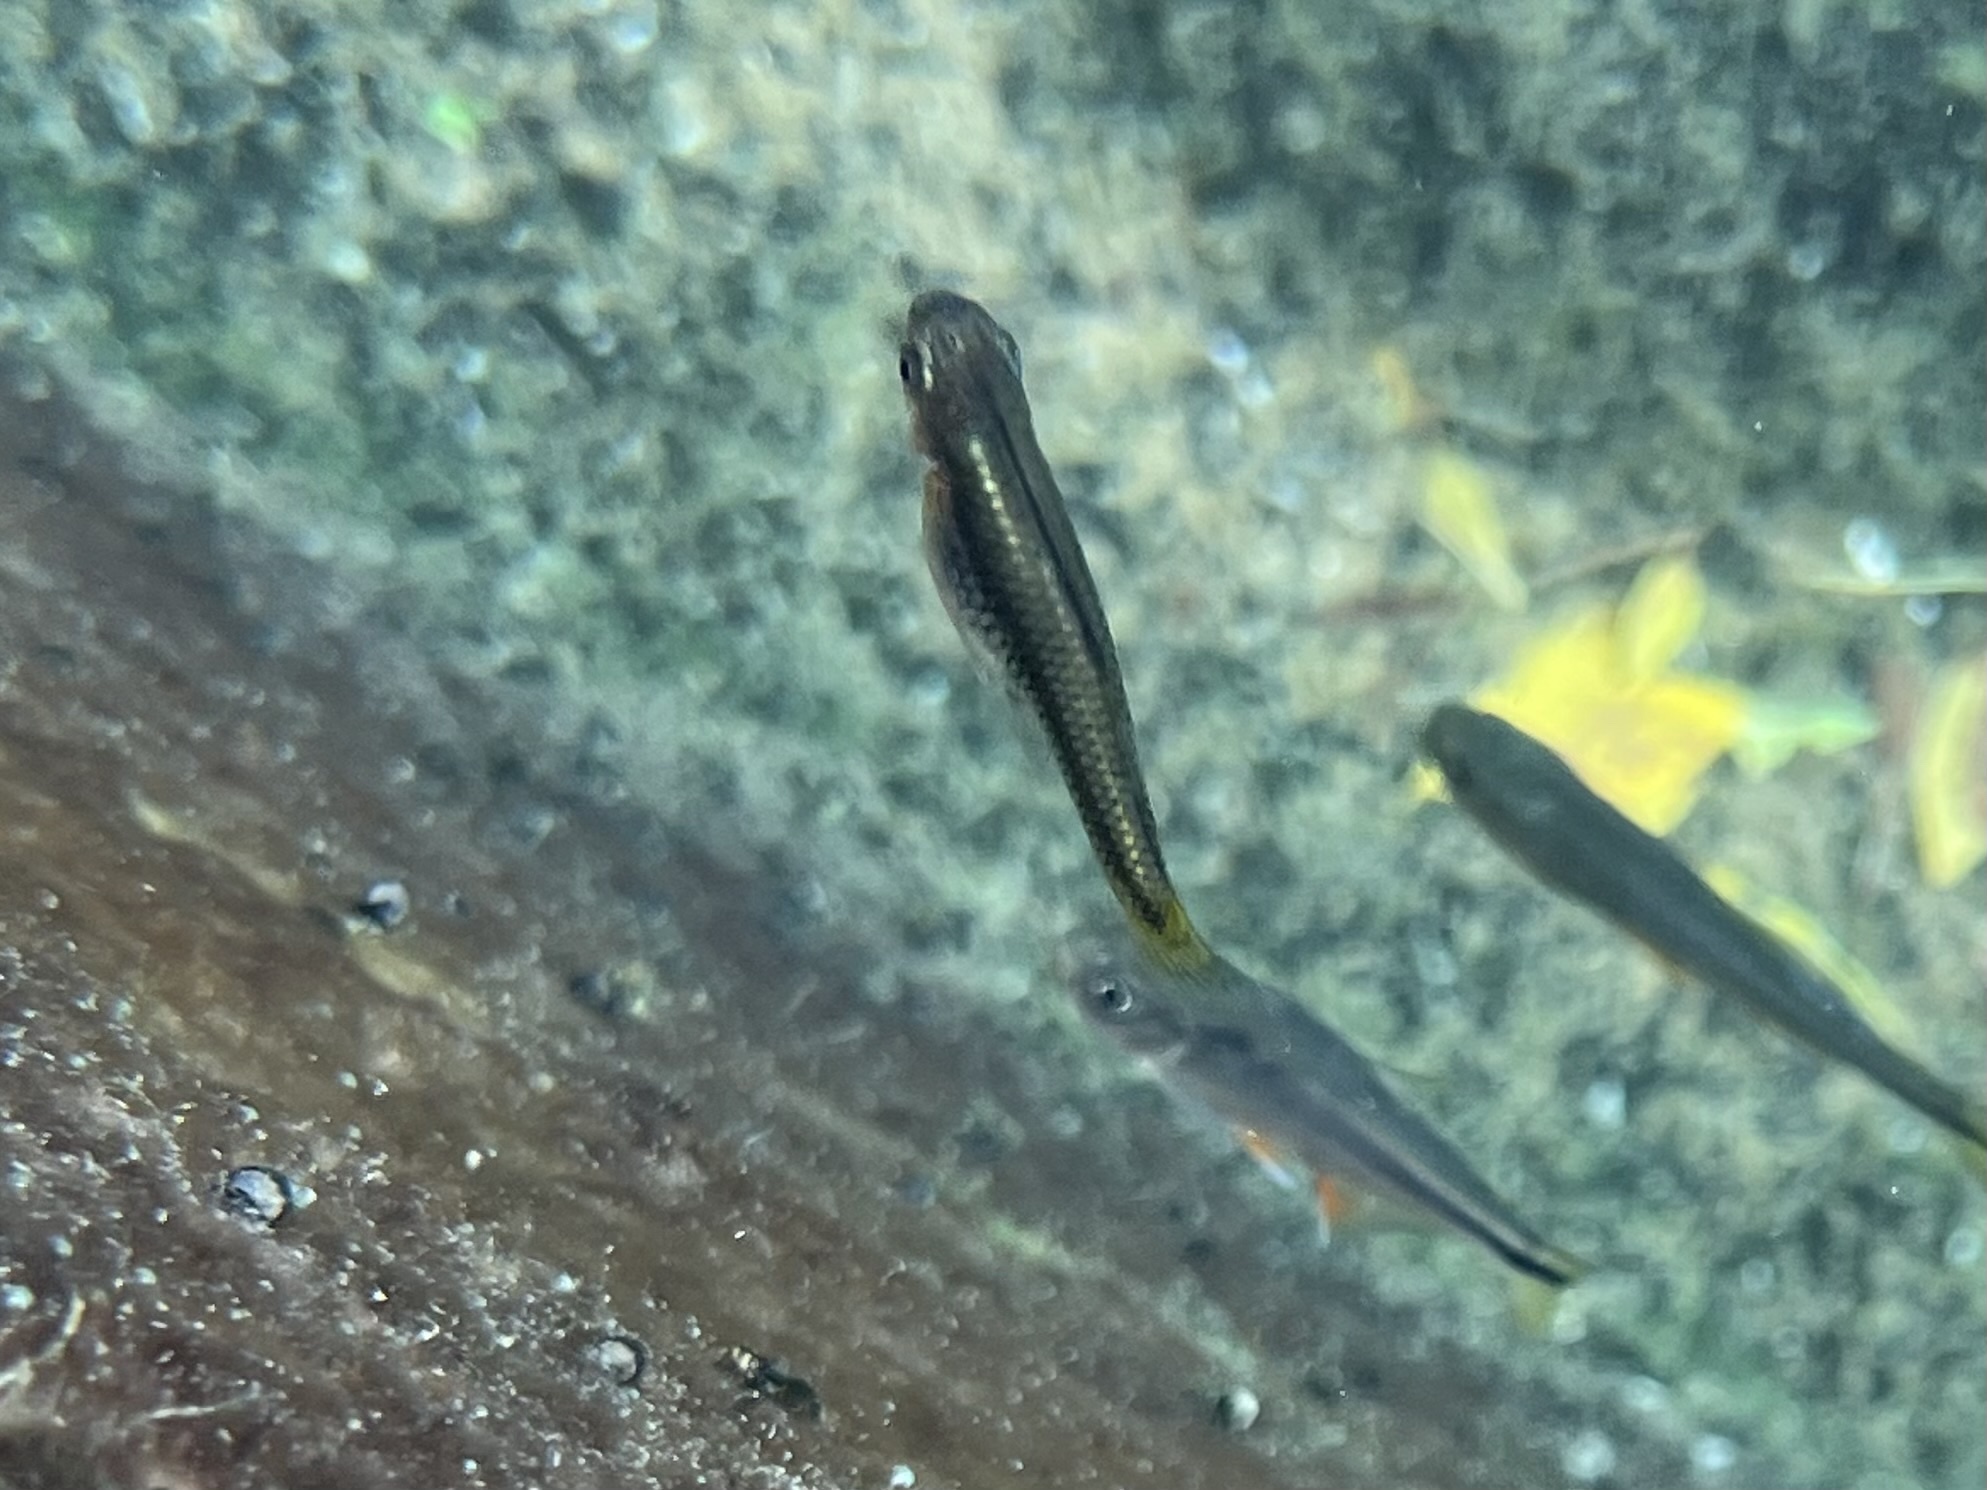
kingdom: Animalia
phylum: Chordata
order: Cyprinodontiformes
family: Poeciliidae
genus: Gambusia
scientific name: Gambusia nobilis
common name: Pecos gambusia
